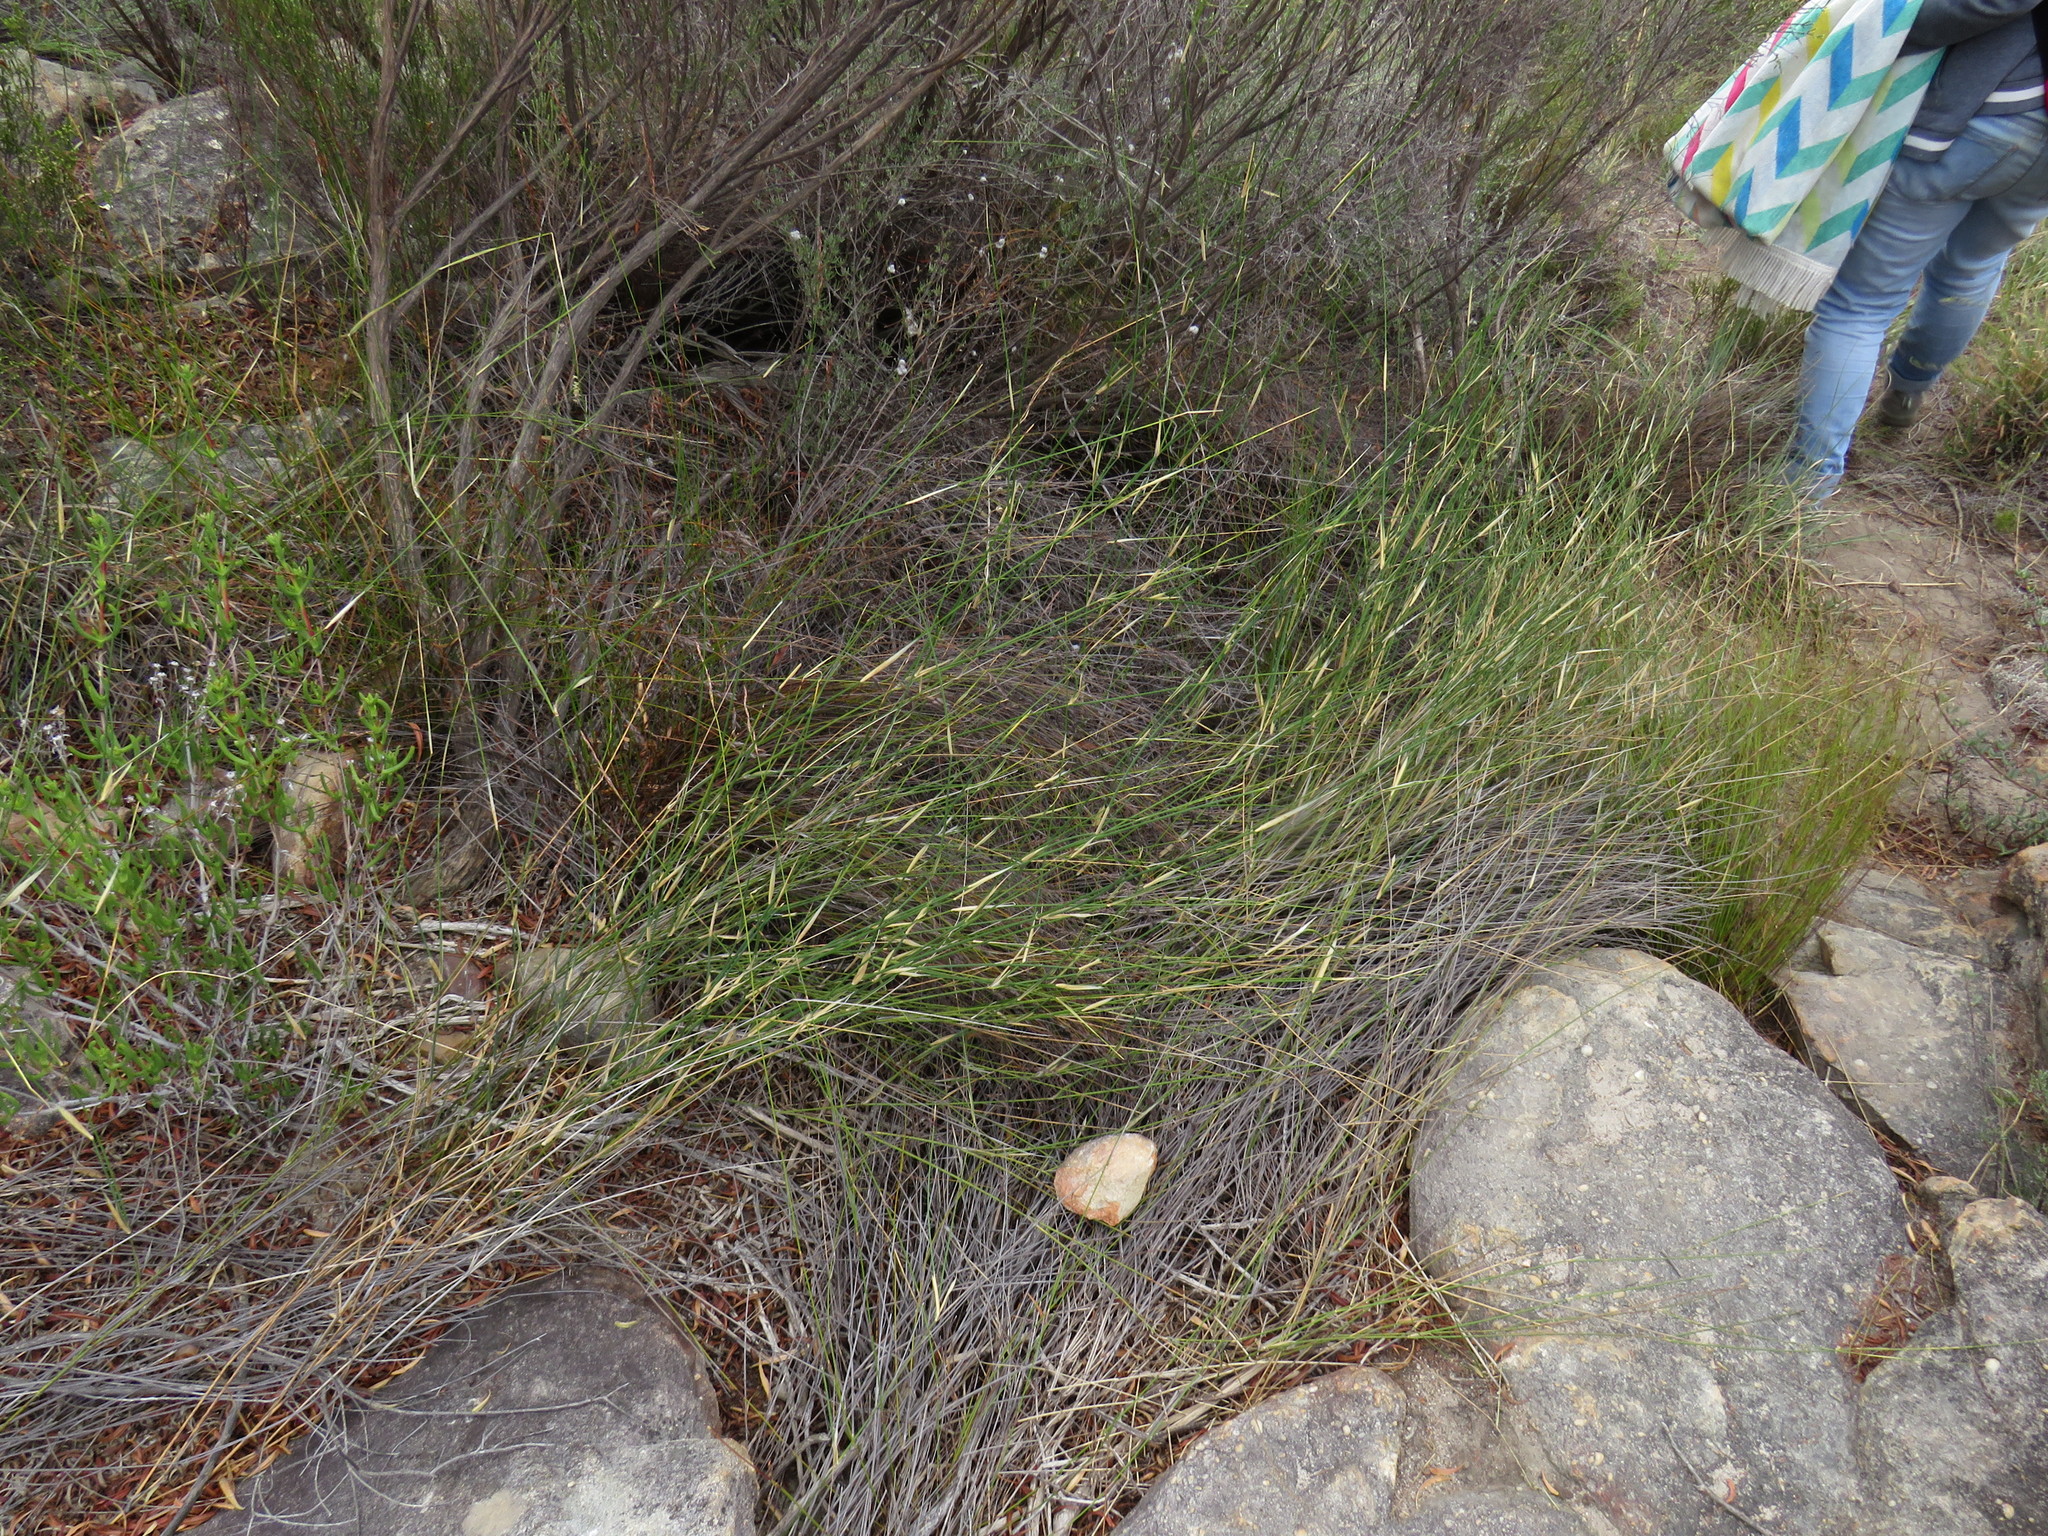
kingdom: Plantae
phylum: Tracheophyta
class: Liliopsida
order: Poales
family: Poaceae
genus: Ehrharta
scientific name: Ehrharta ramosa
